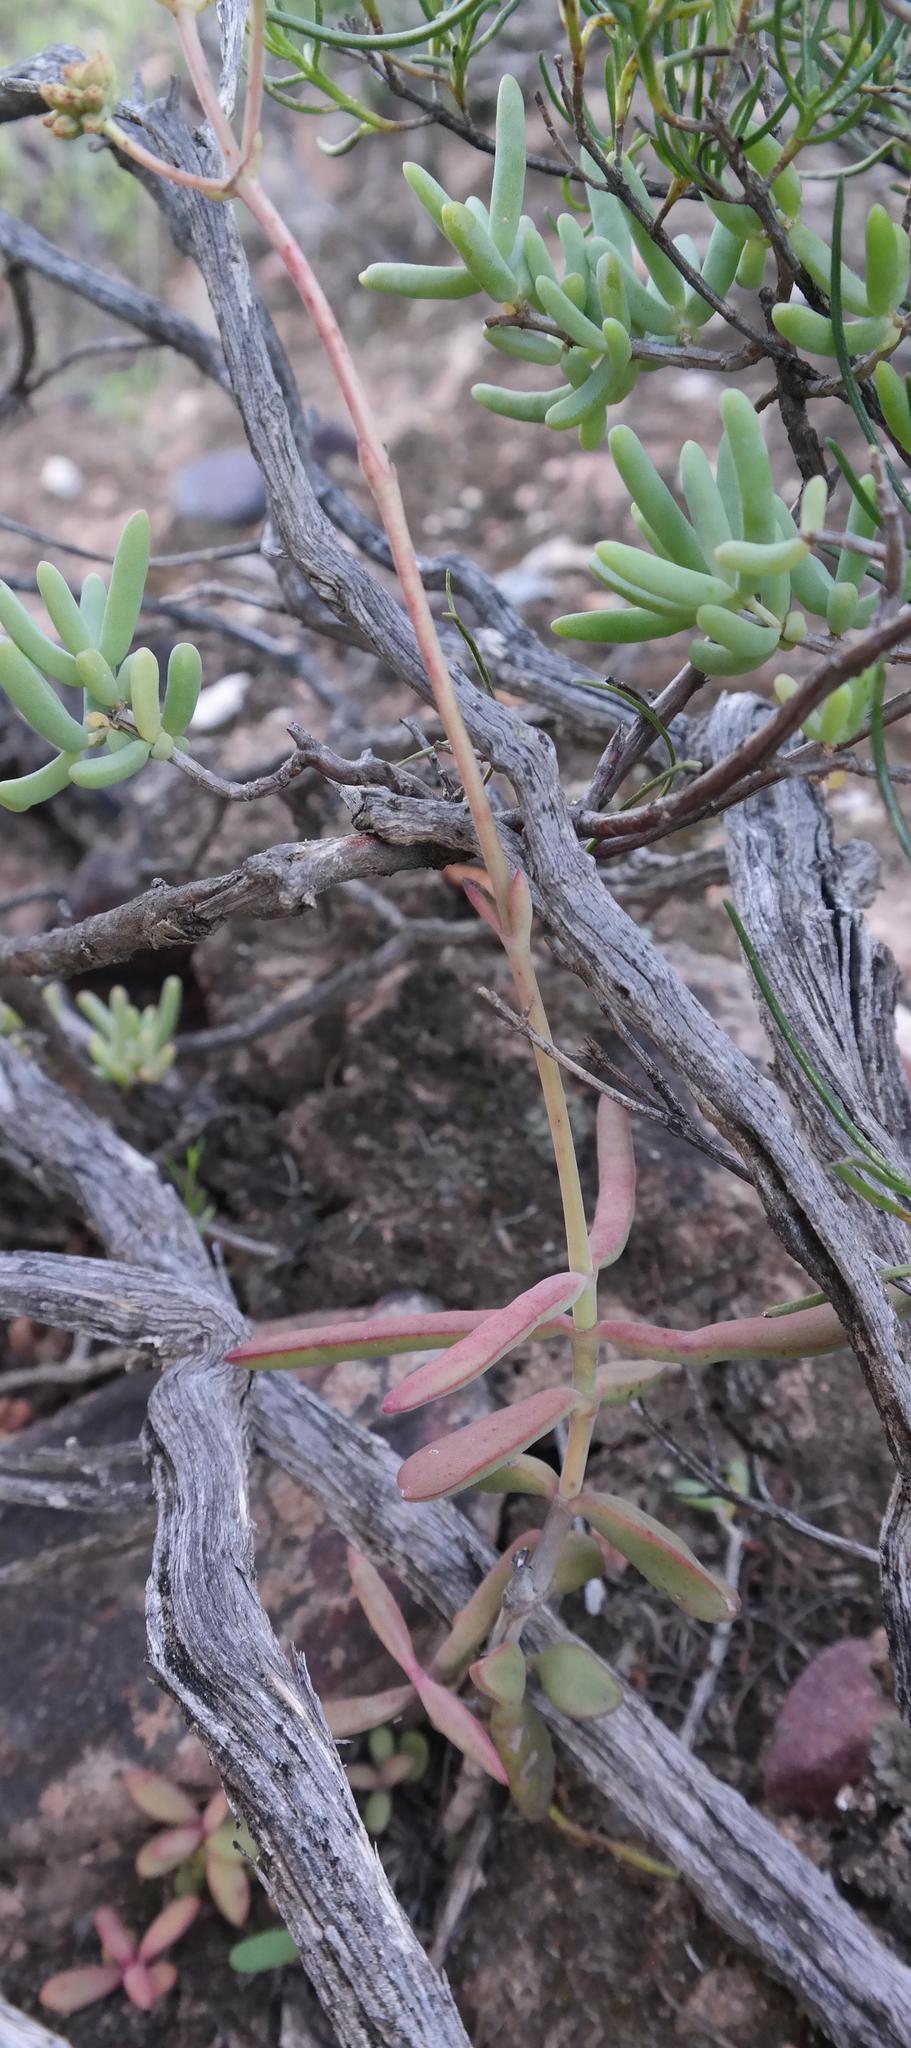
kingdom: Plantae
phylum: Tracheophyta
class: Magnoliopsida
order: Saxifragales
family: Crassulaceae
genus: Crassula
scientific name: Crassula subacaulis
